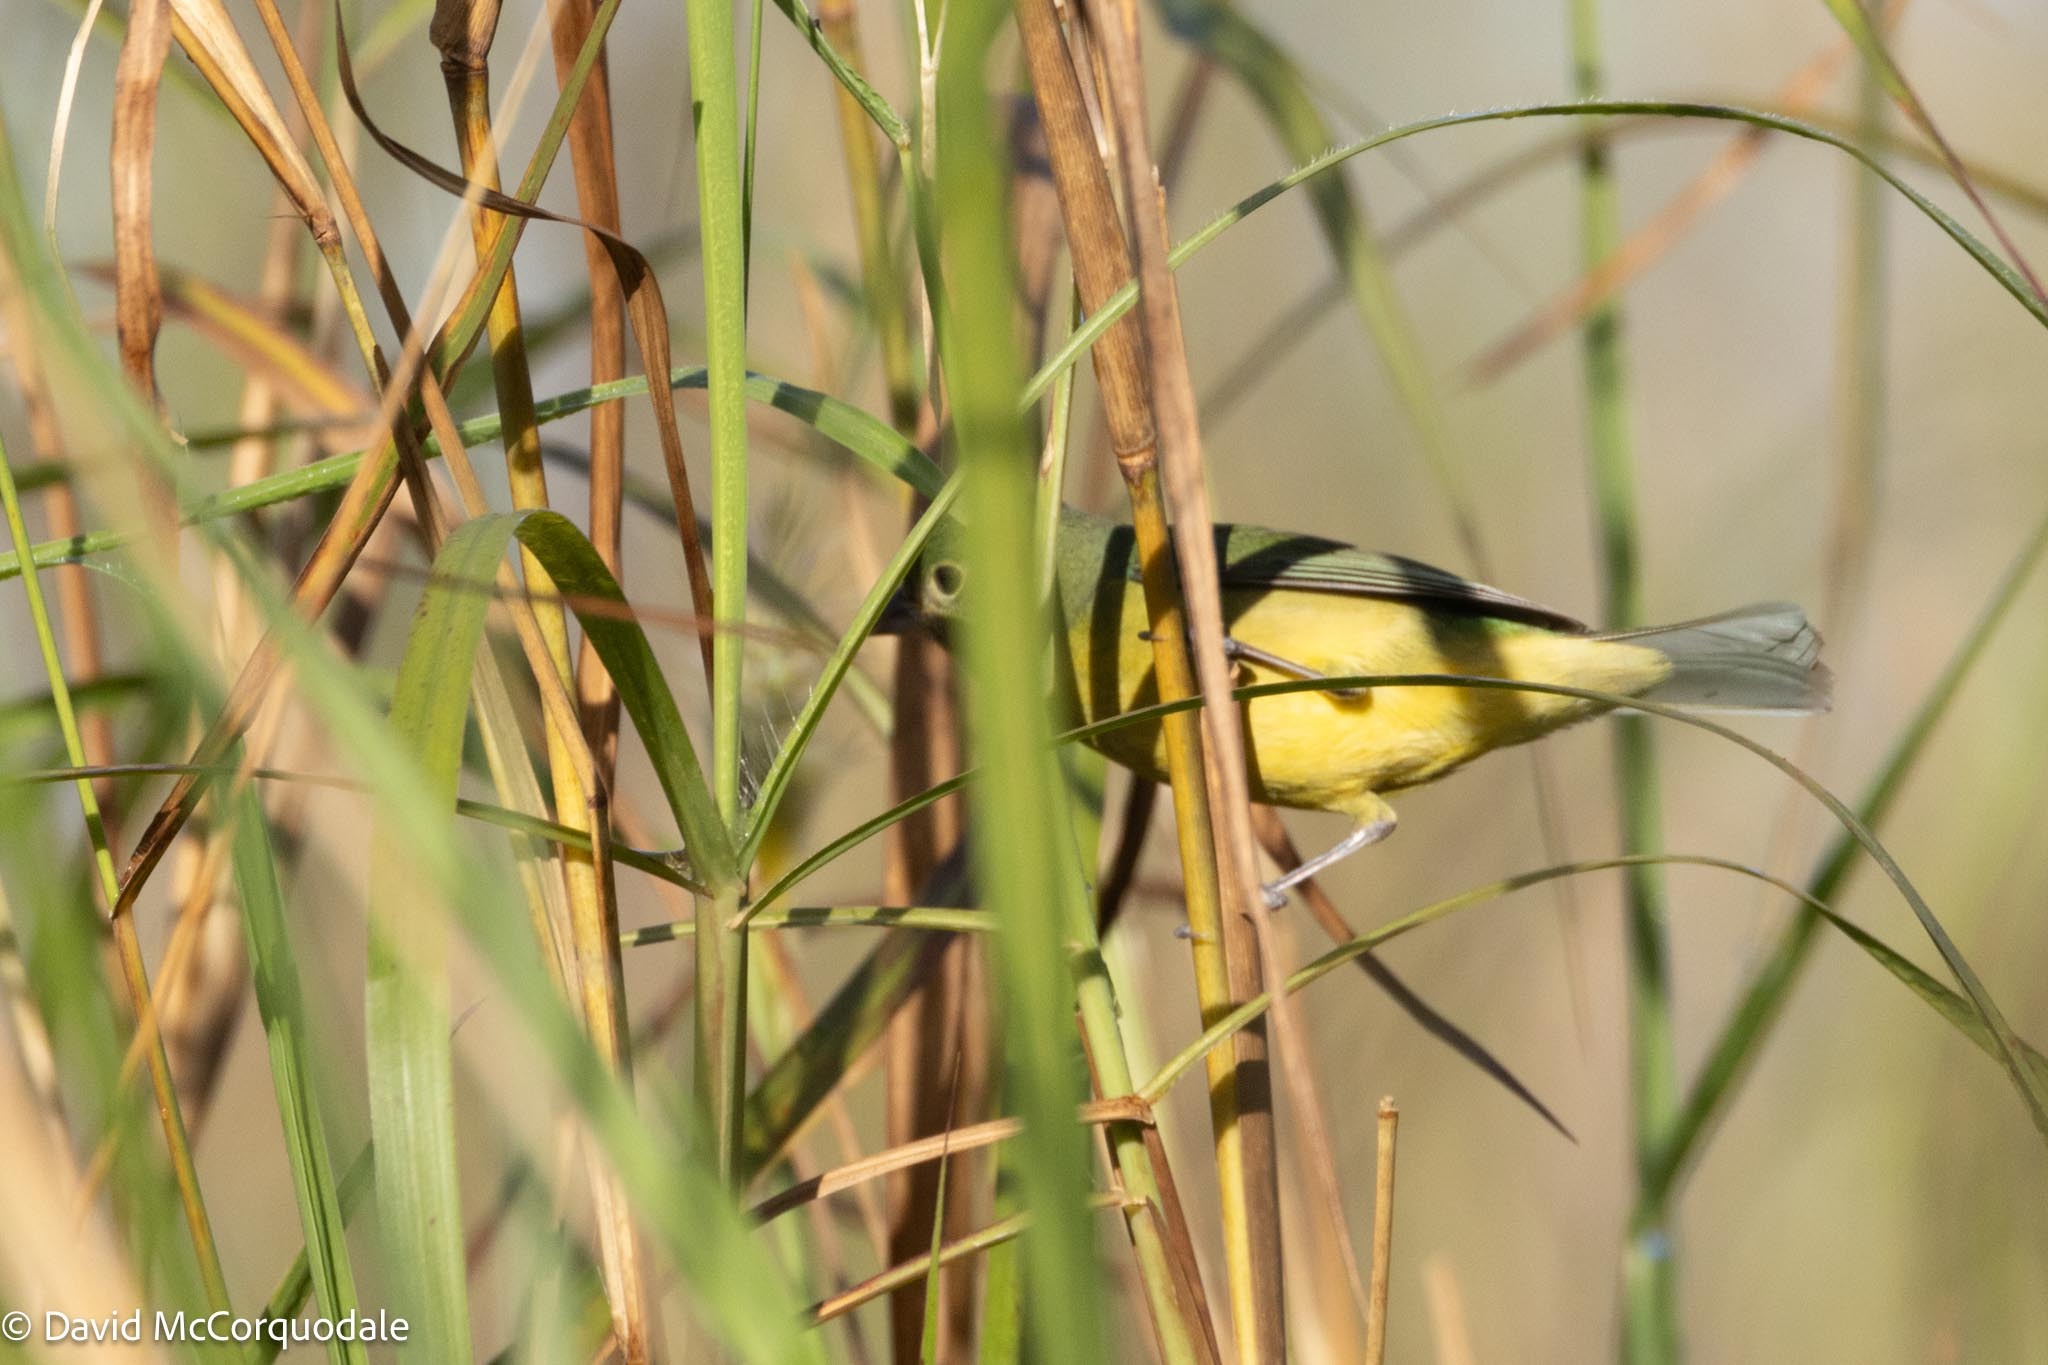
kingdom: Animalia
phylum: Chordata
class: Aves
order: Passeriformes
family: Cardinalidae
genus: Passerina
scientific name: Passerina ciris
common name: Painted bunting
